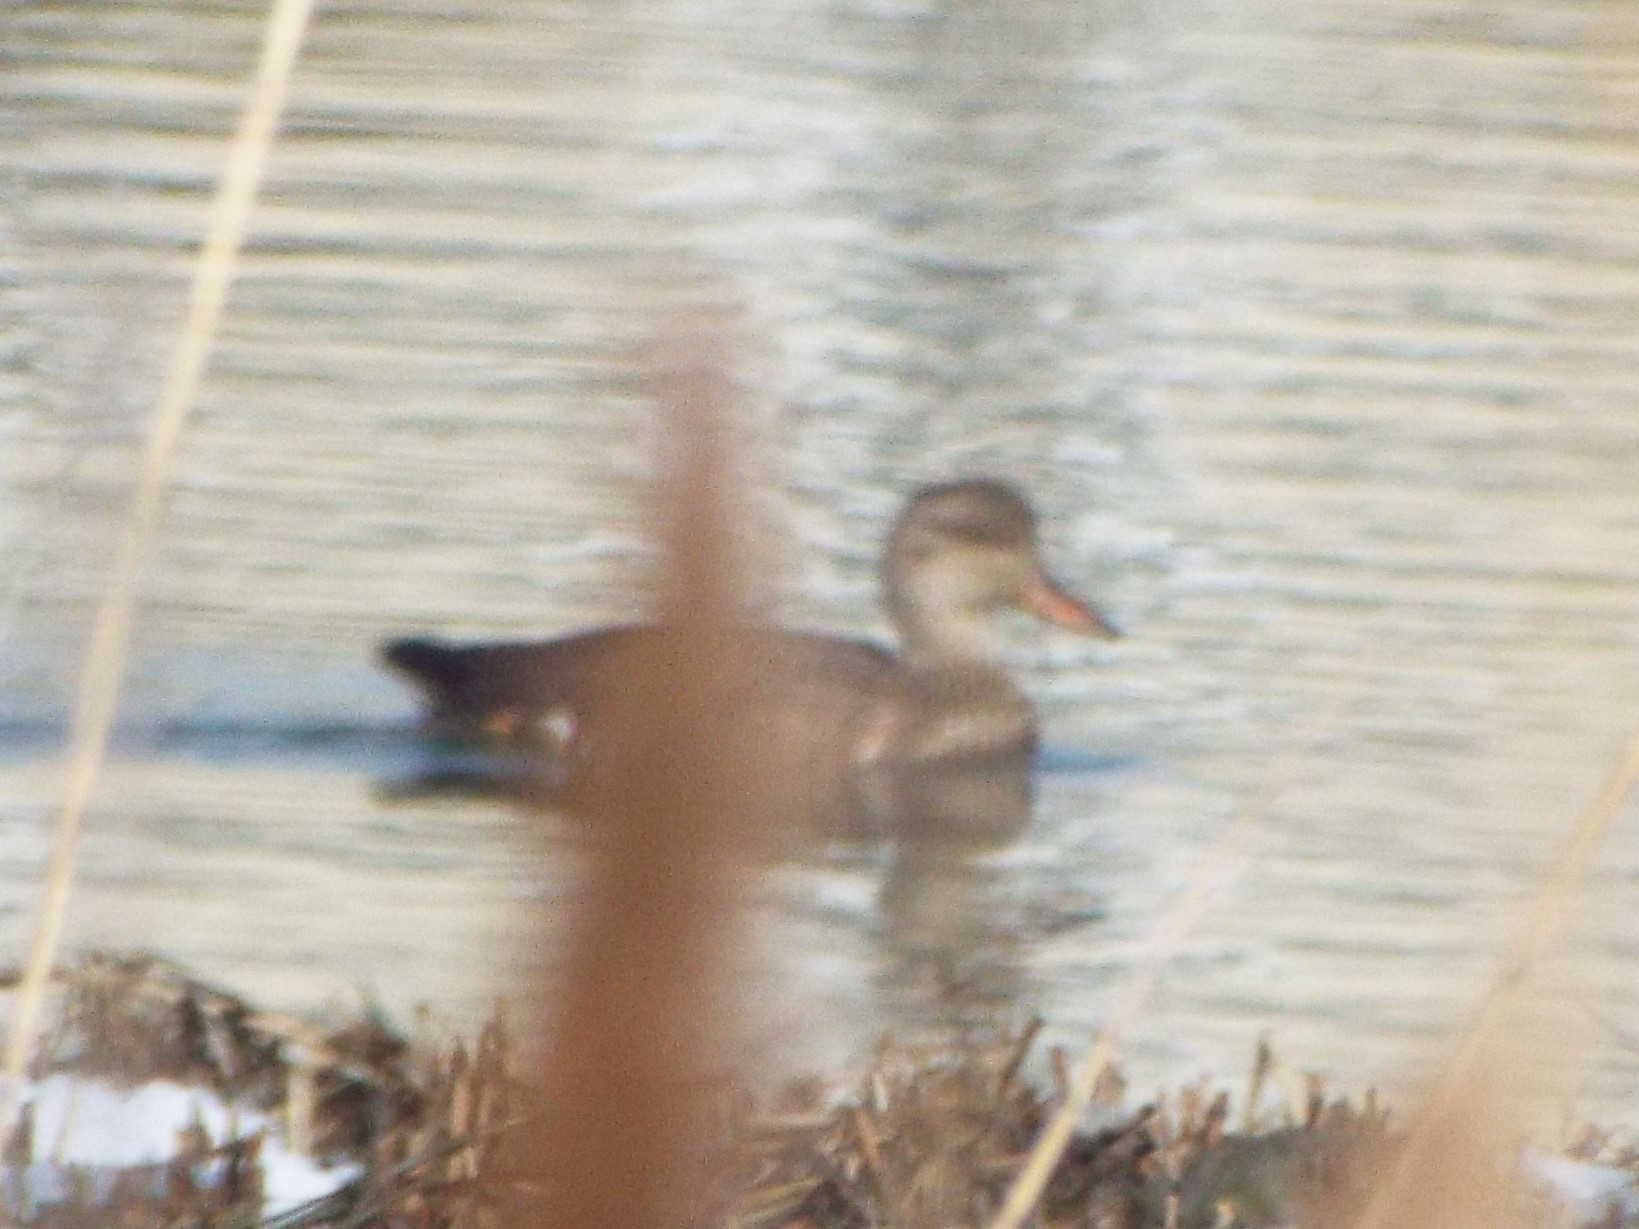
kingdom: Animalia
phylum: Chordata
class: Aves
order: Anseriformes
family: Anatidae
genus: Mareca
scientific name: Mareca strepera
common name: Gadwall
